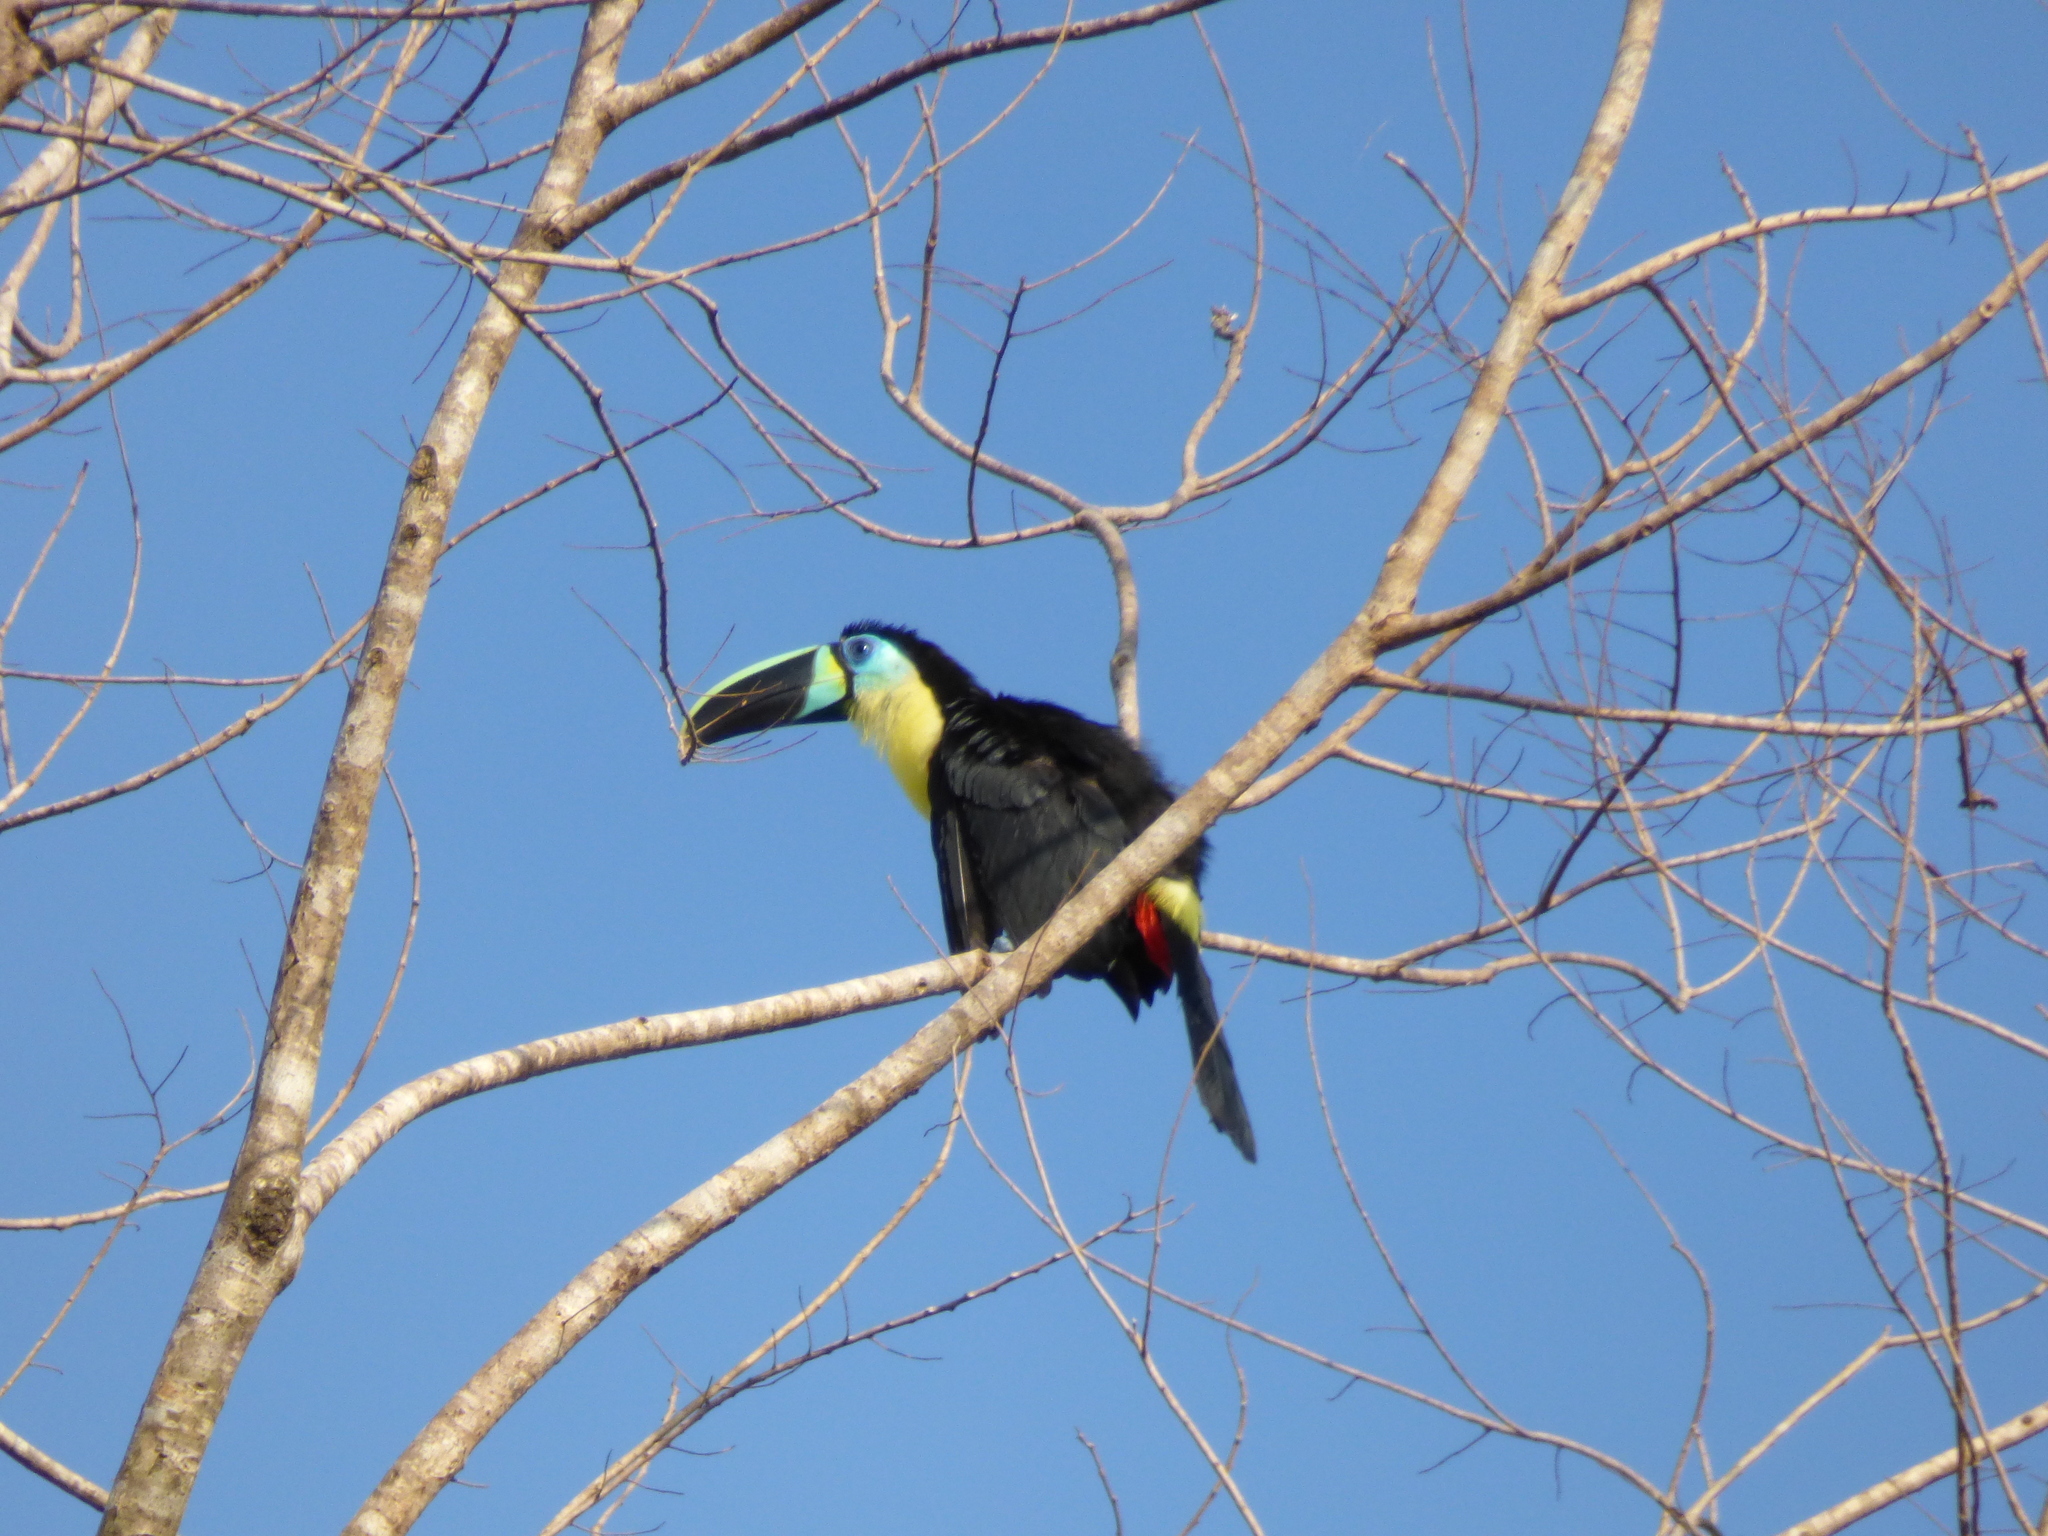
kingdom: Animalia
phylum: Chordata
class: Aves
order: Piciformes
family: Ramphastidae
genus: Ramphastos
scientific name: Ramphastos vitellinus
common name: Channel-billed toucan
